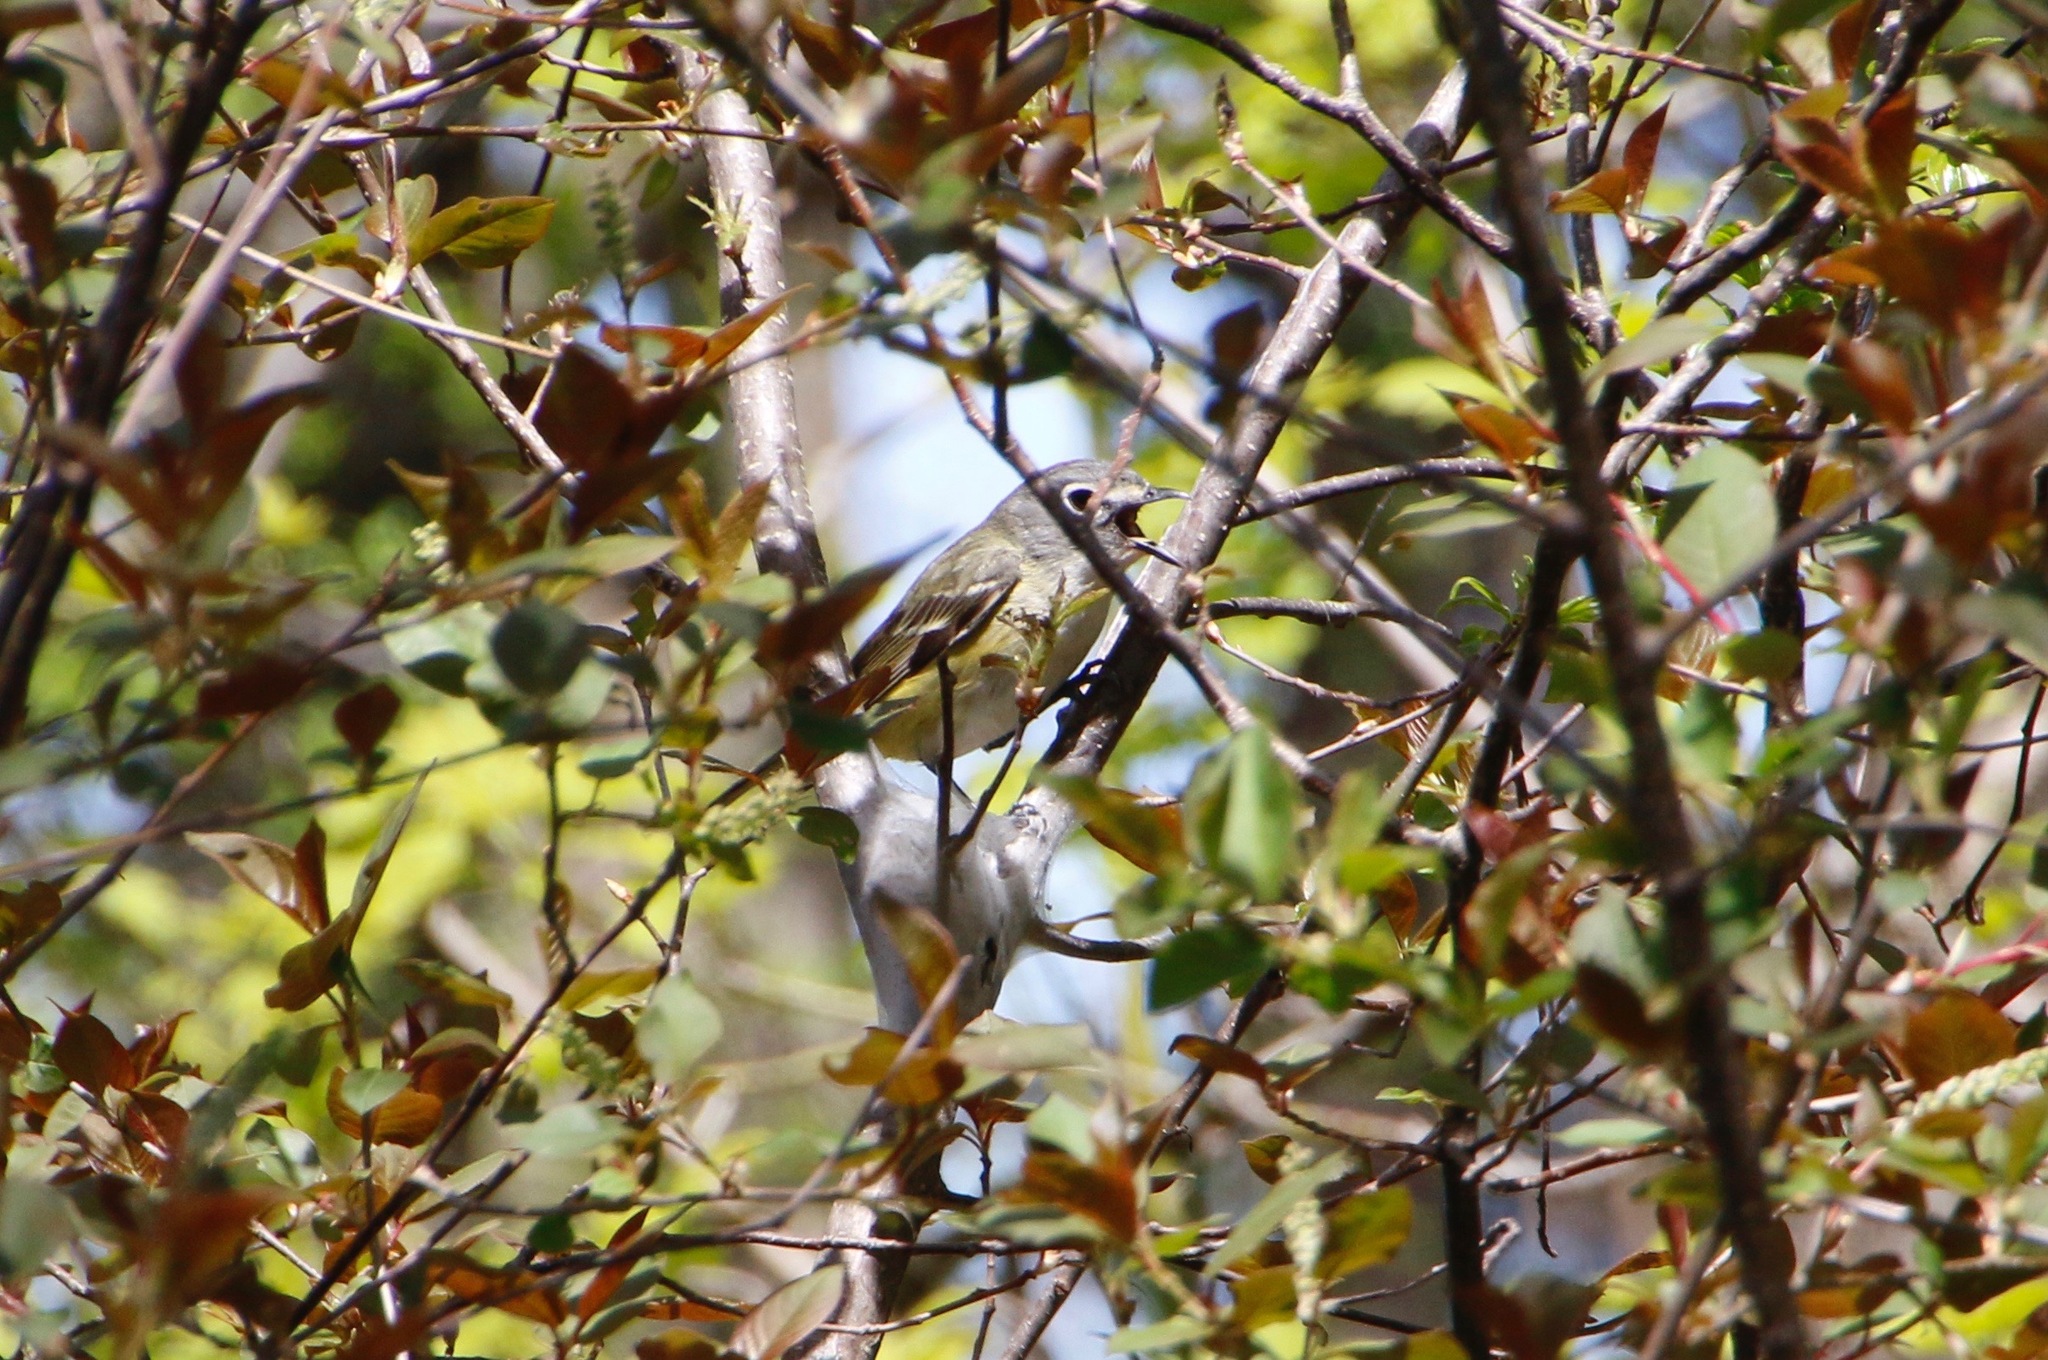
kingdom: Animalia
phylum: Chordata
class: Aves
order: Passeriformes
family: Vireonidae
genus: Vireo
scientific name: Vireo solitarius
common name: Blue-headed vireo
